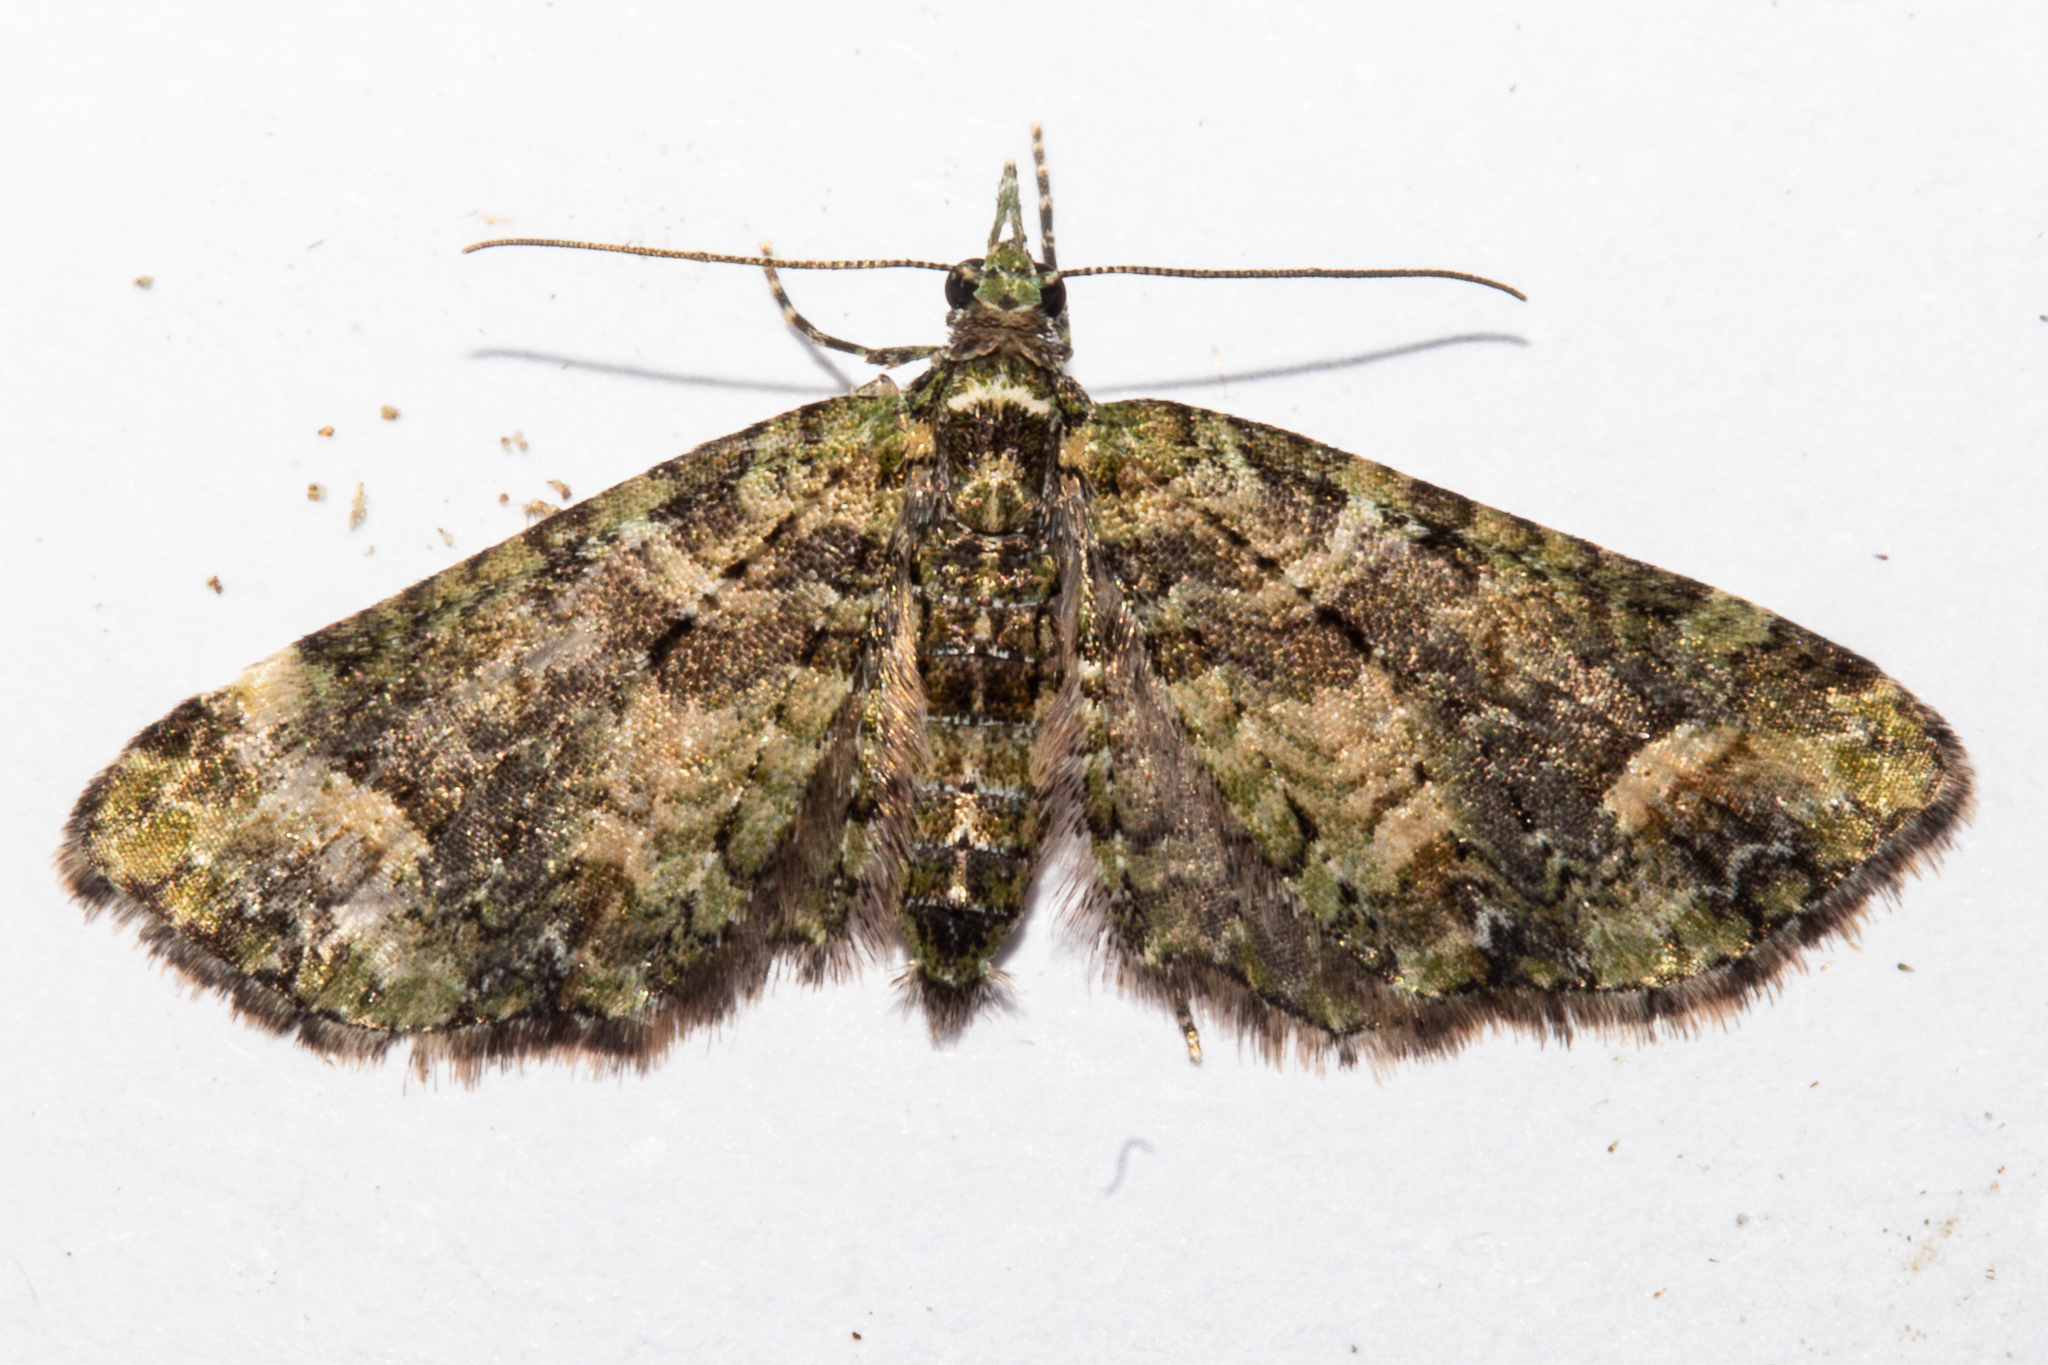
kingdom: Animalia
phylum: Arthropoda
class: Insecta
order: Lepidoptera
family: Geometridae
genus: Idaea
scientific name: Idaea mutanda
